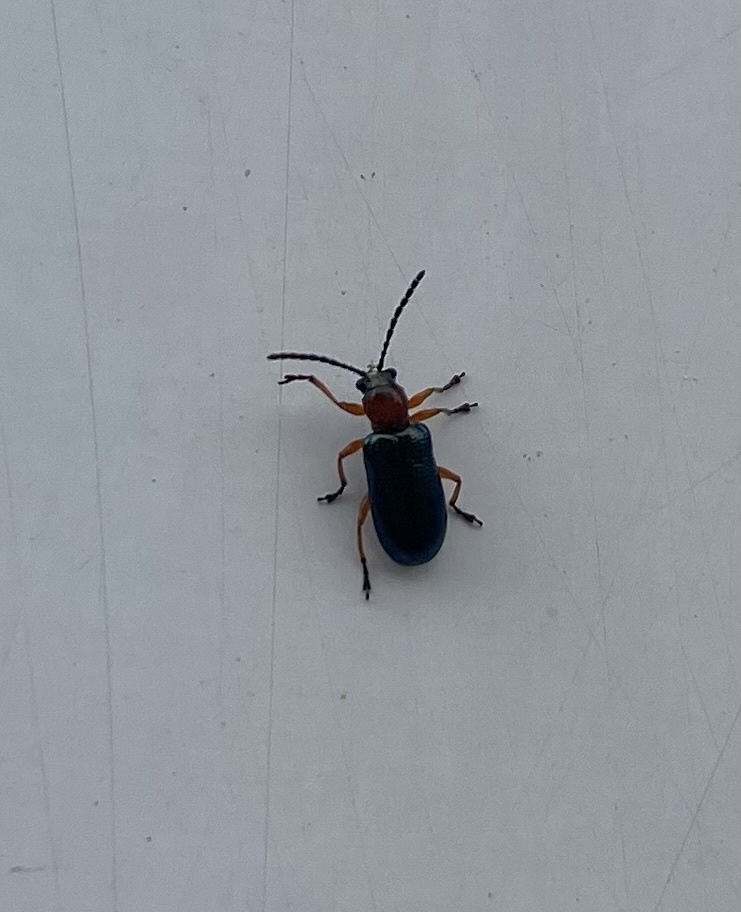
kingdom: Animalia
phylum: Arthropoda
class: Insecta
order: Coleoptera
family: Chrysomelidae
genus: Oulema
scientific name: Oulema
